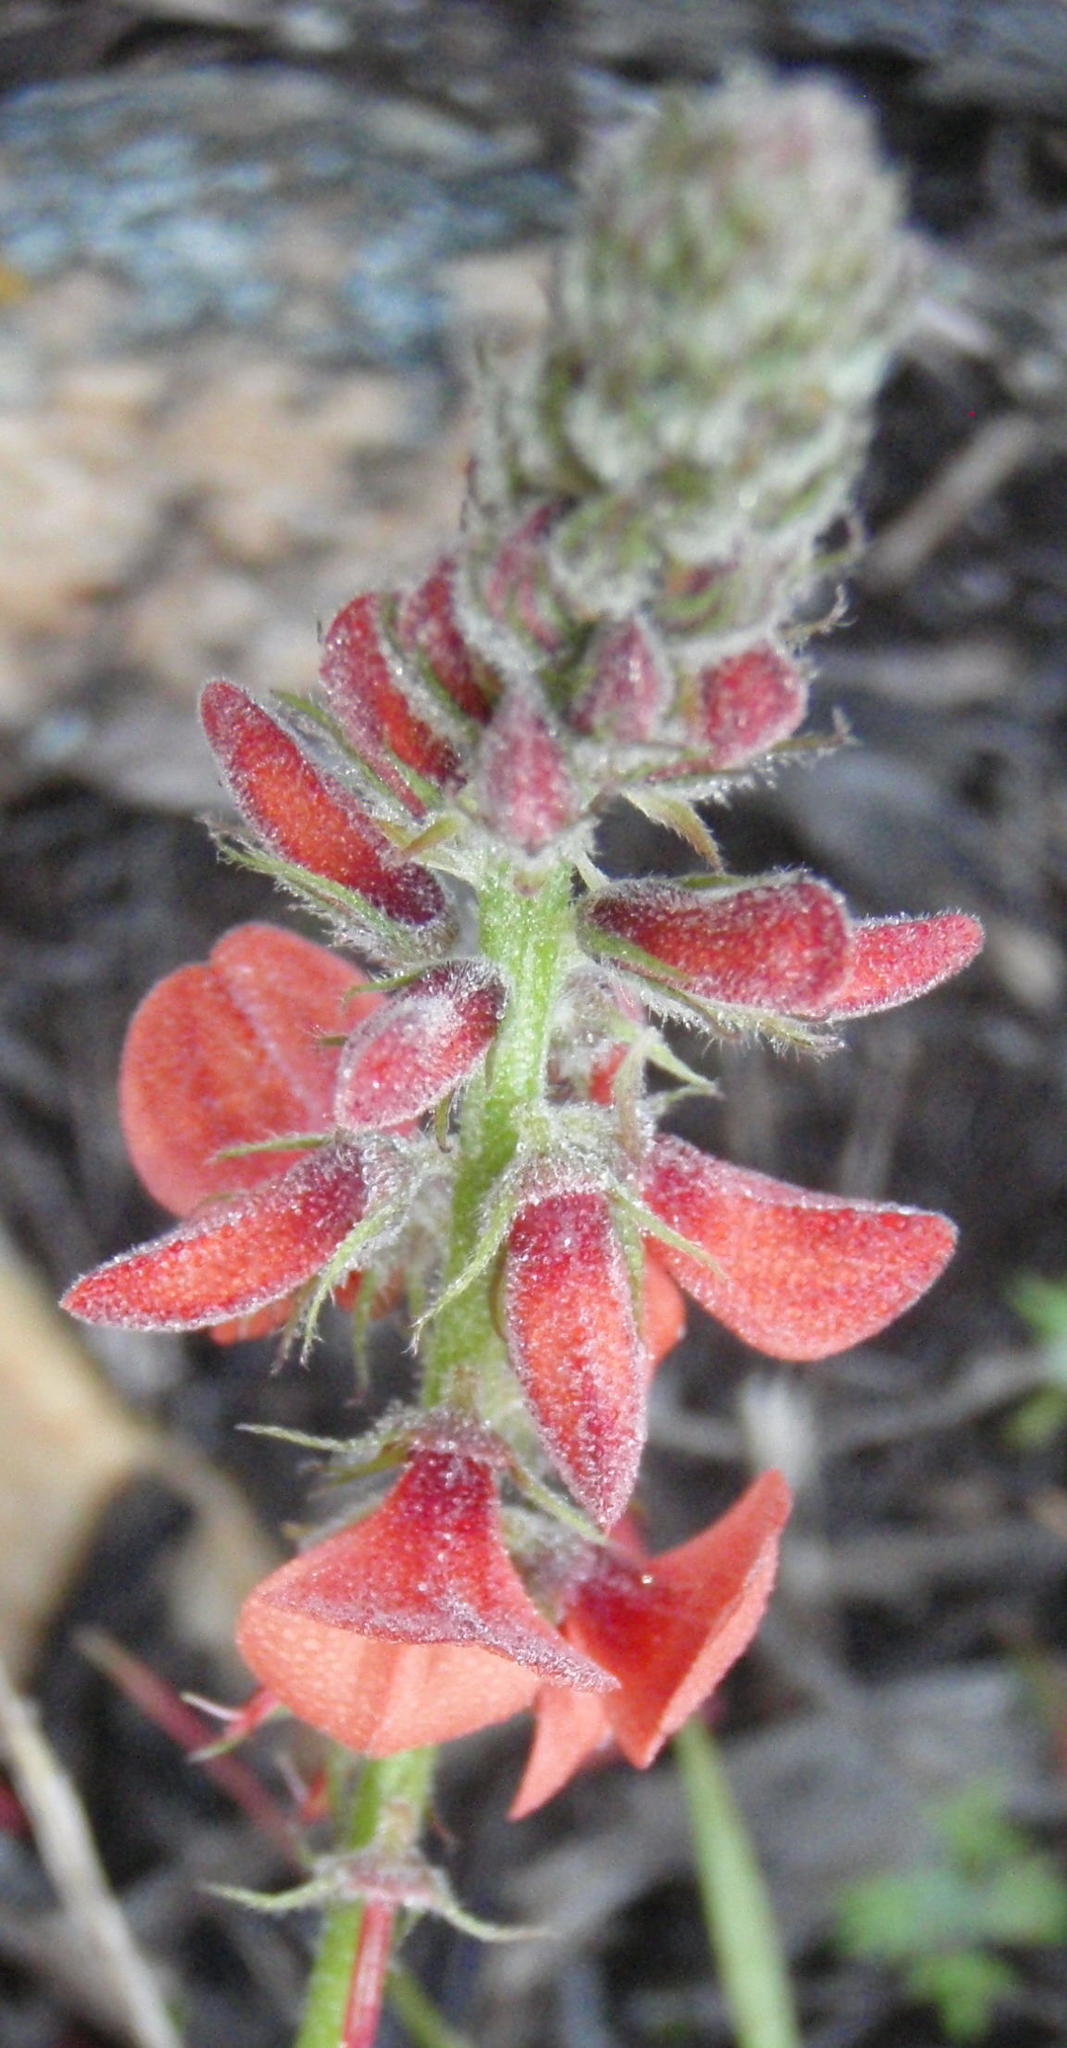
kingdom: Plantae
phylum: Tracheophyta
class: Magnoliopsida
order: Fabales
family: Fabaceae
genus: Indigofera
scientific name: Indigofera porrecta
